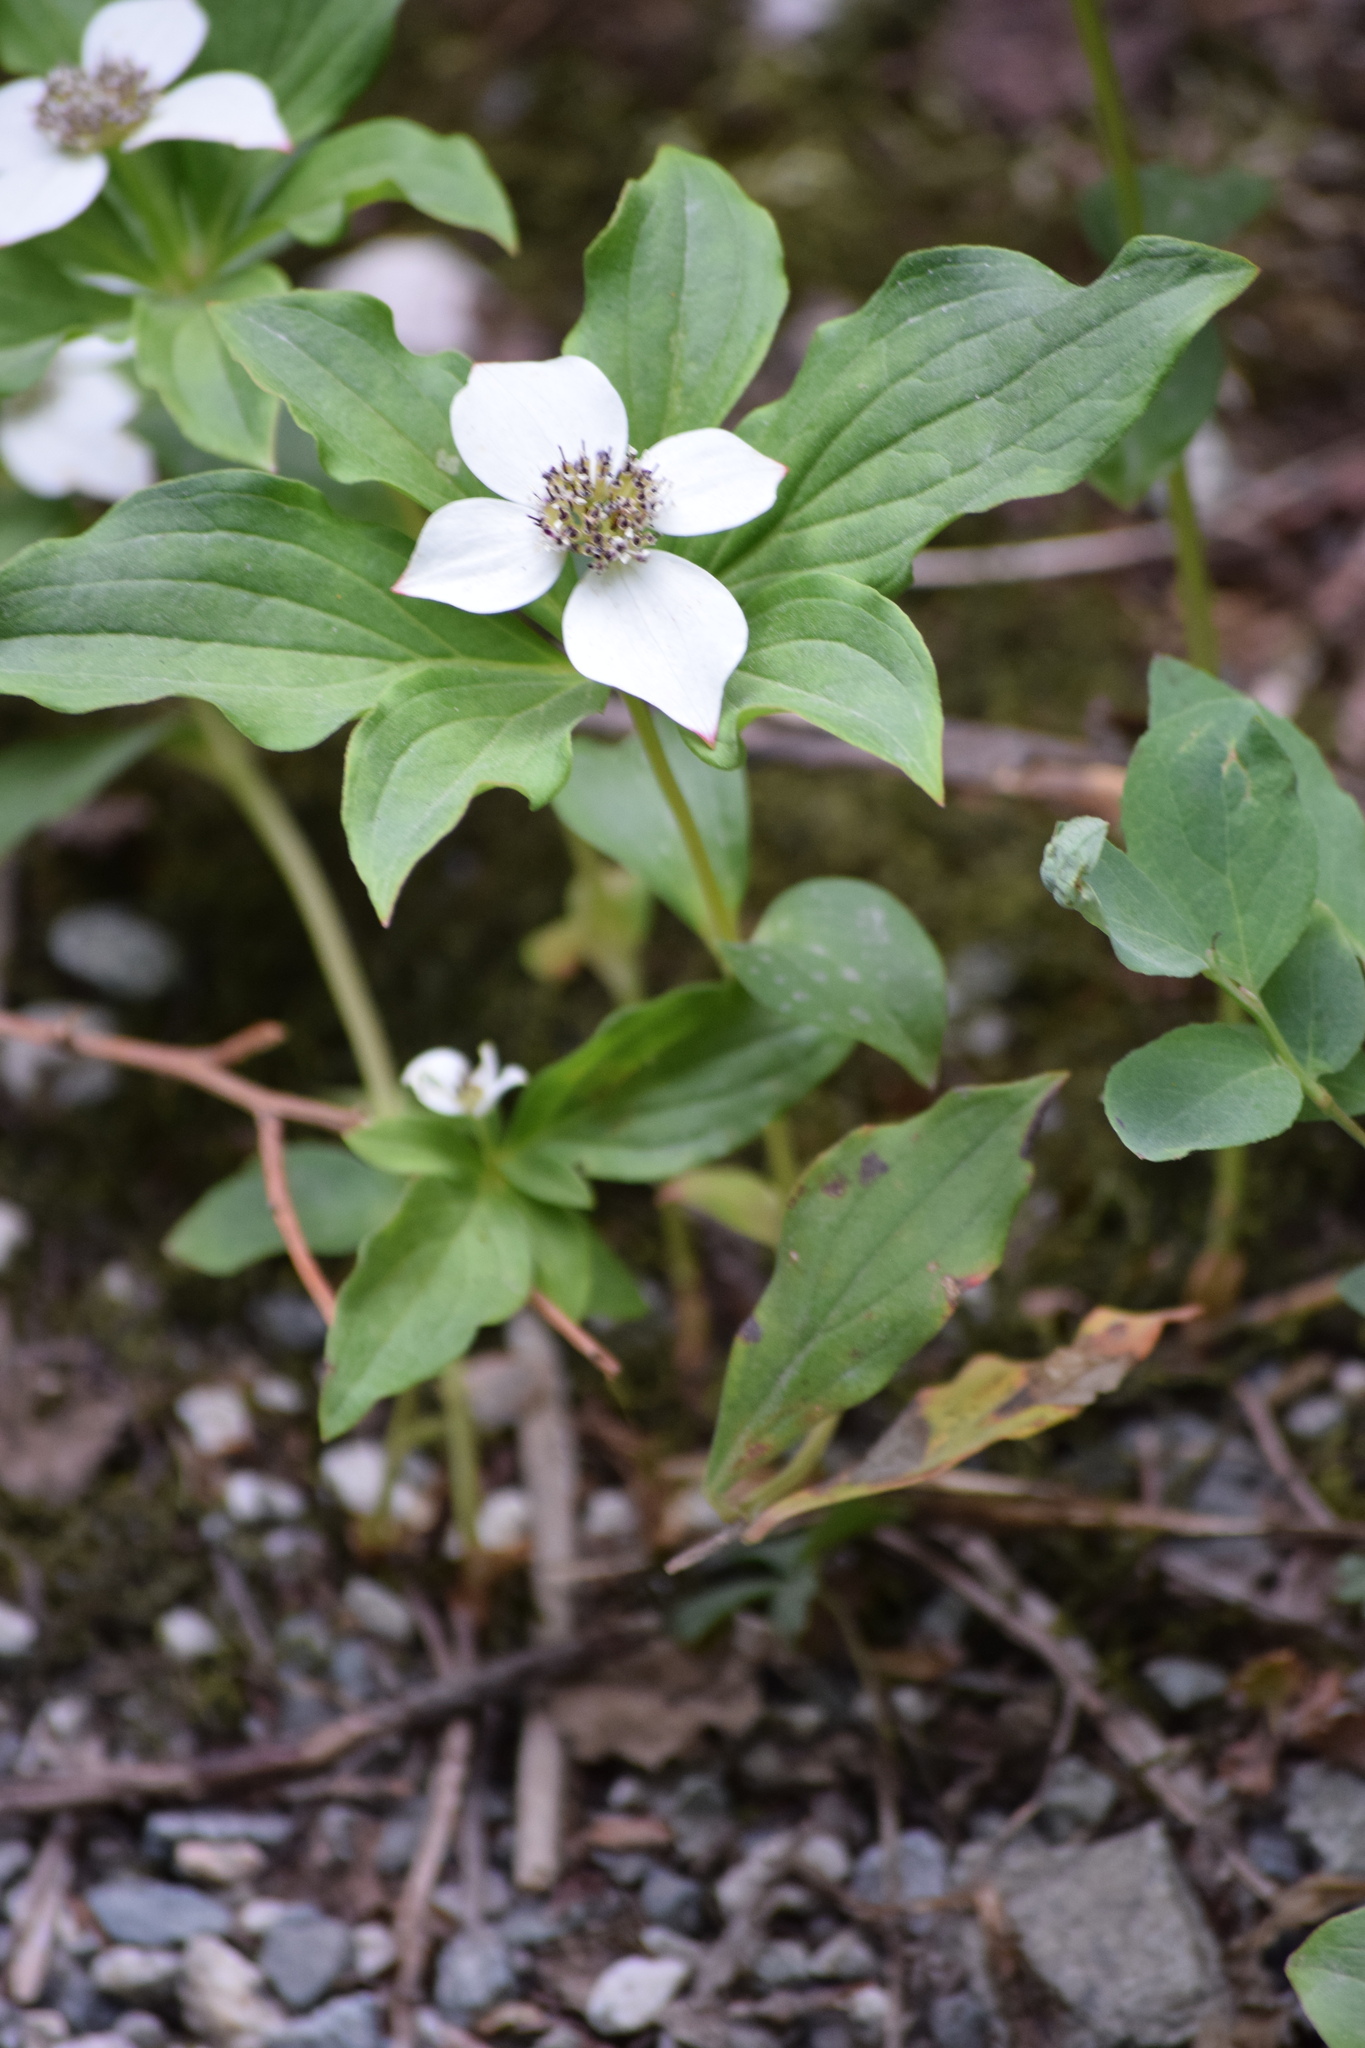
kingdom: Plantae
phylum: Tracheophyta
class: Magnoliopsida
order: Cornales
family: Cornaceae
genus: Cornus
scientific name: Cornus unalaschkensis
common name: Alaska bunchberry
